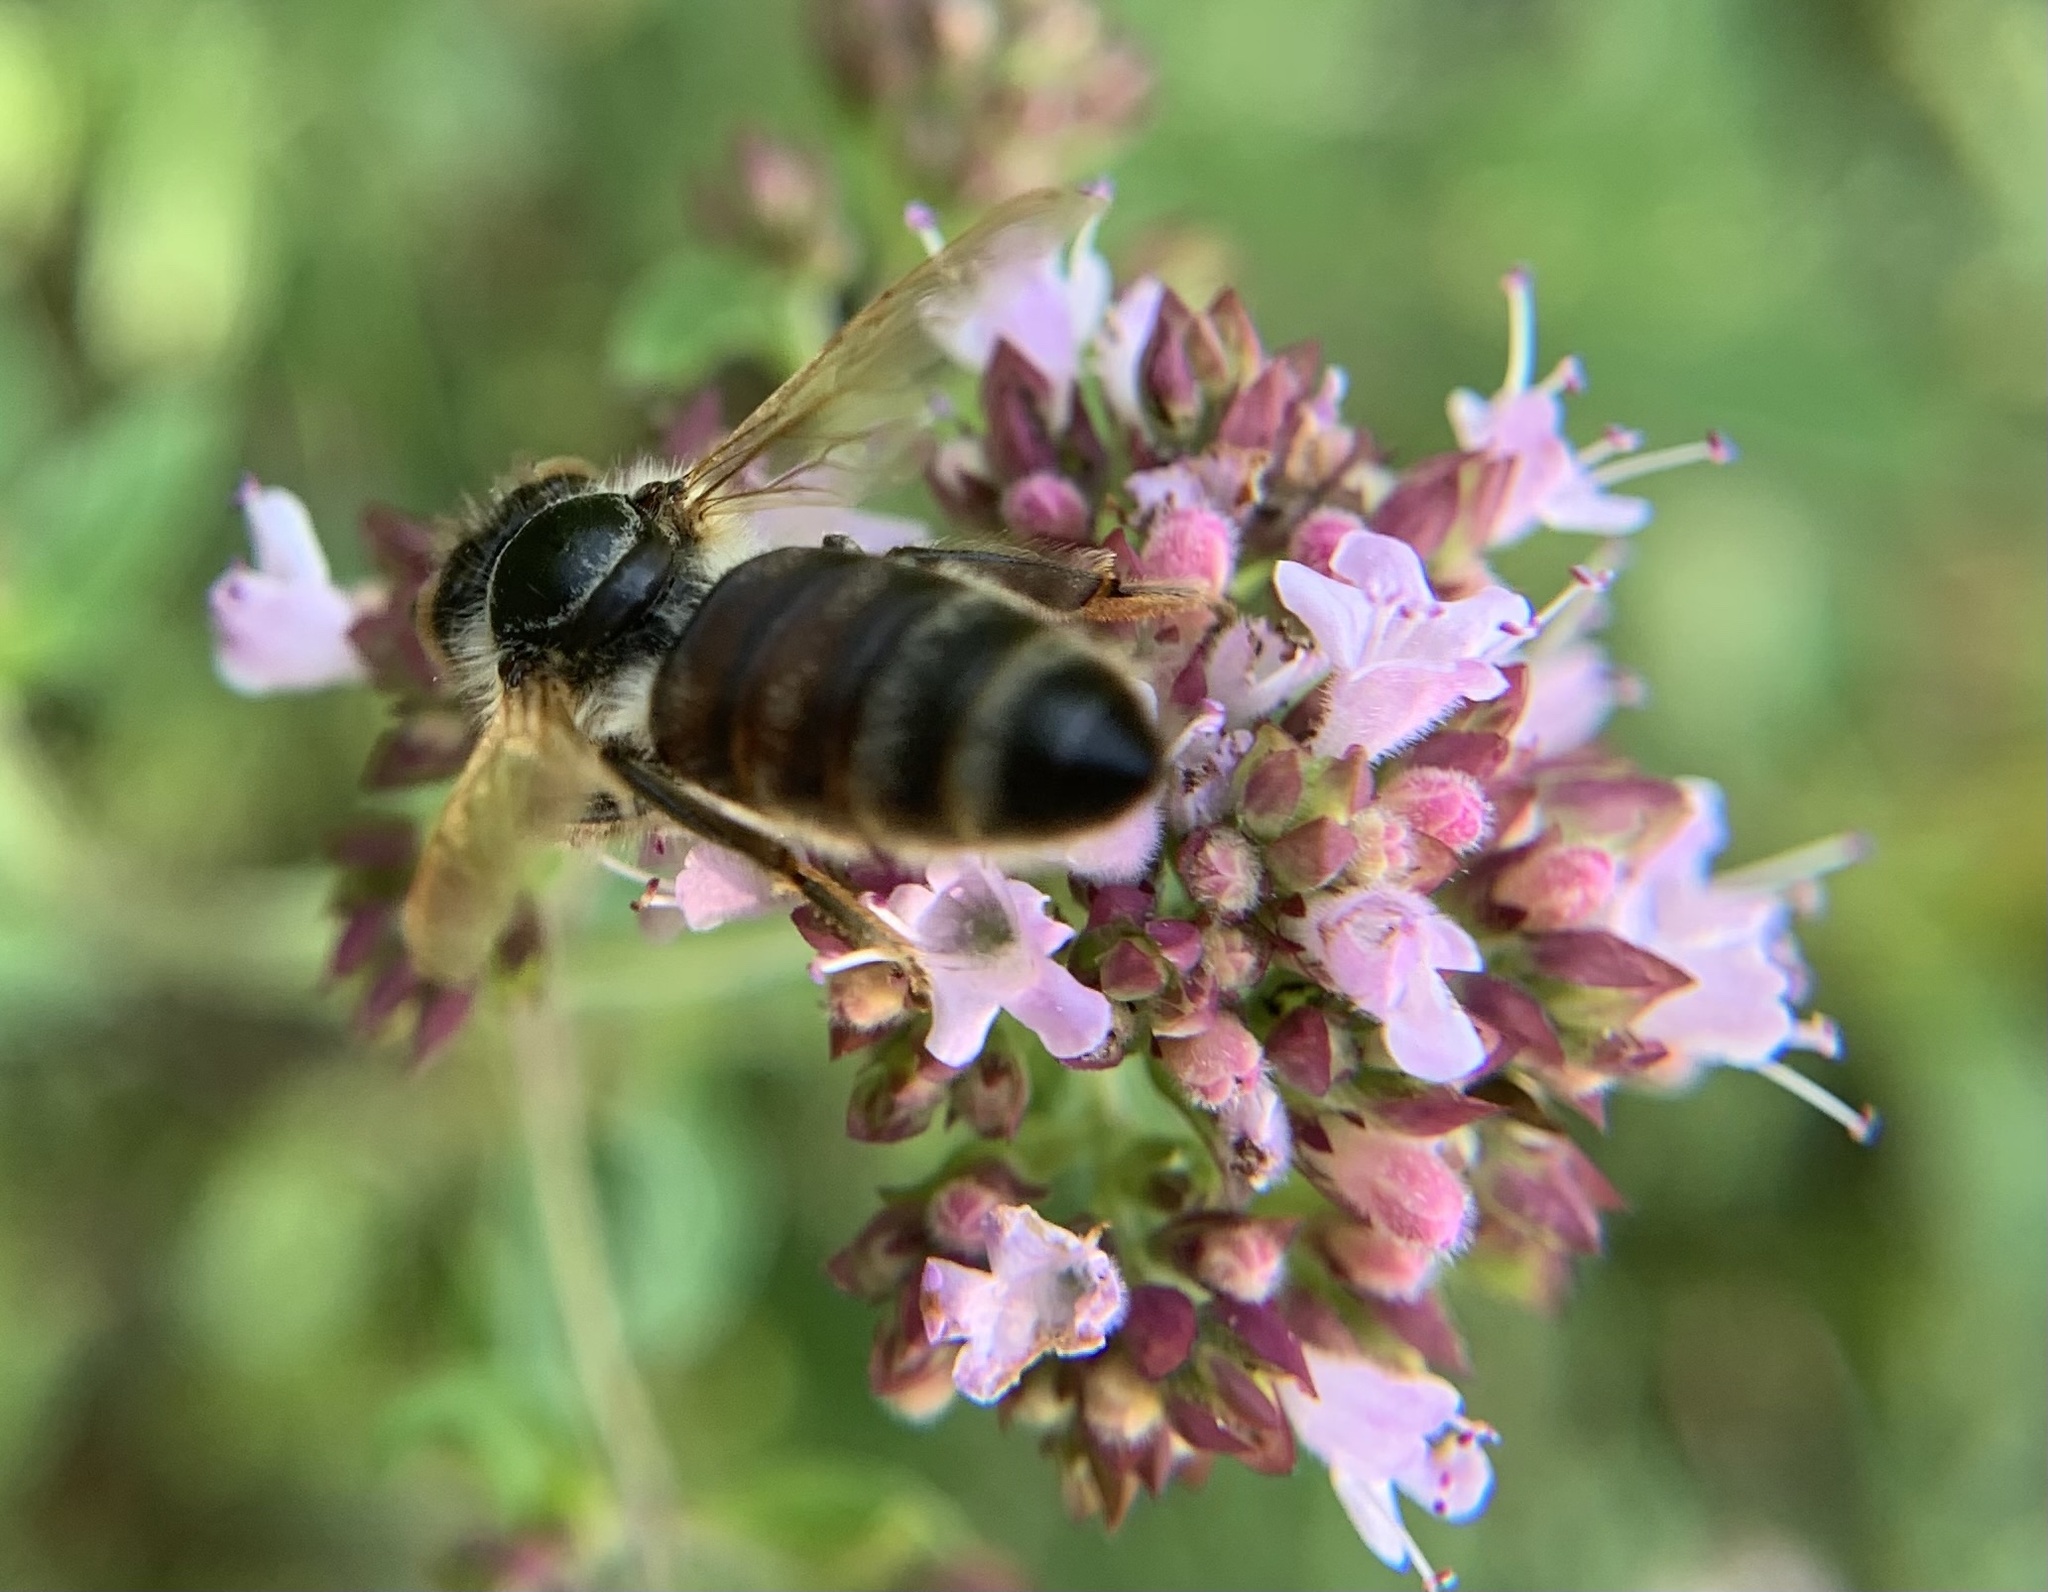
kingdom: Animalia
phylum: Arthropoda
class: Insecta
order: Hymenoptera
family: Apidae
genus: Apis
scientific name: Apis mellifera
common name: Honey bee
